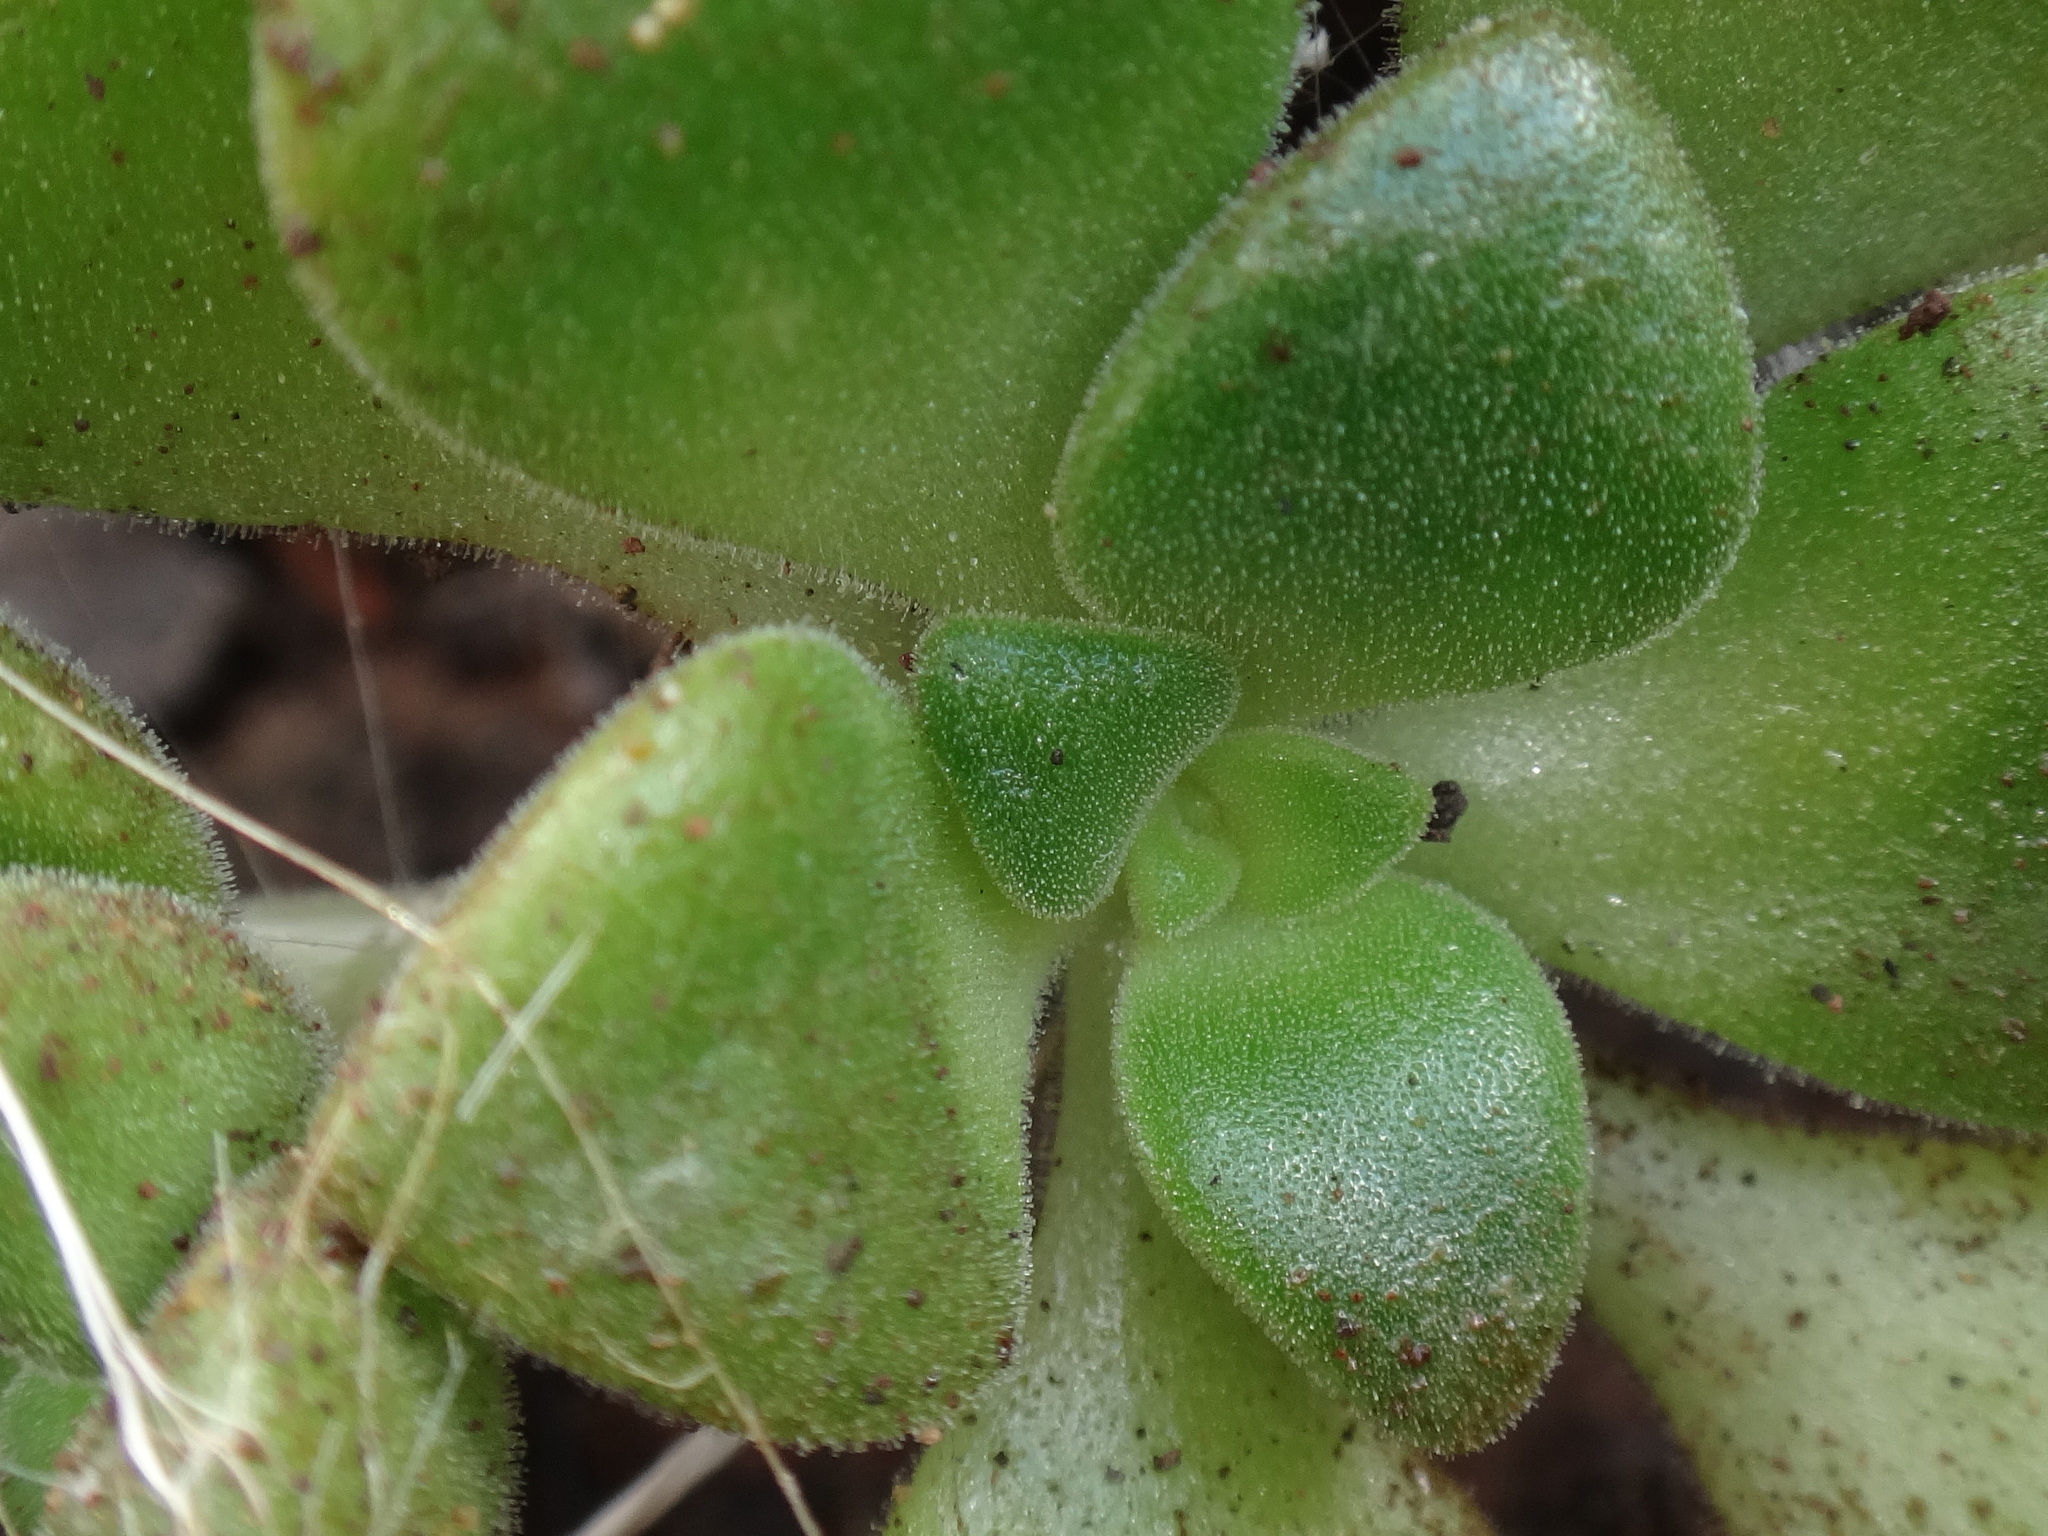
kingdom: Plantae
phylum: Tracheophyta
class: Magnoliopsida
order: Saxifragales
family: Crassulaceae
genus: Aeonium
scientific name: Aeonium lindleyi
